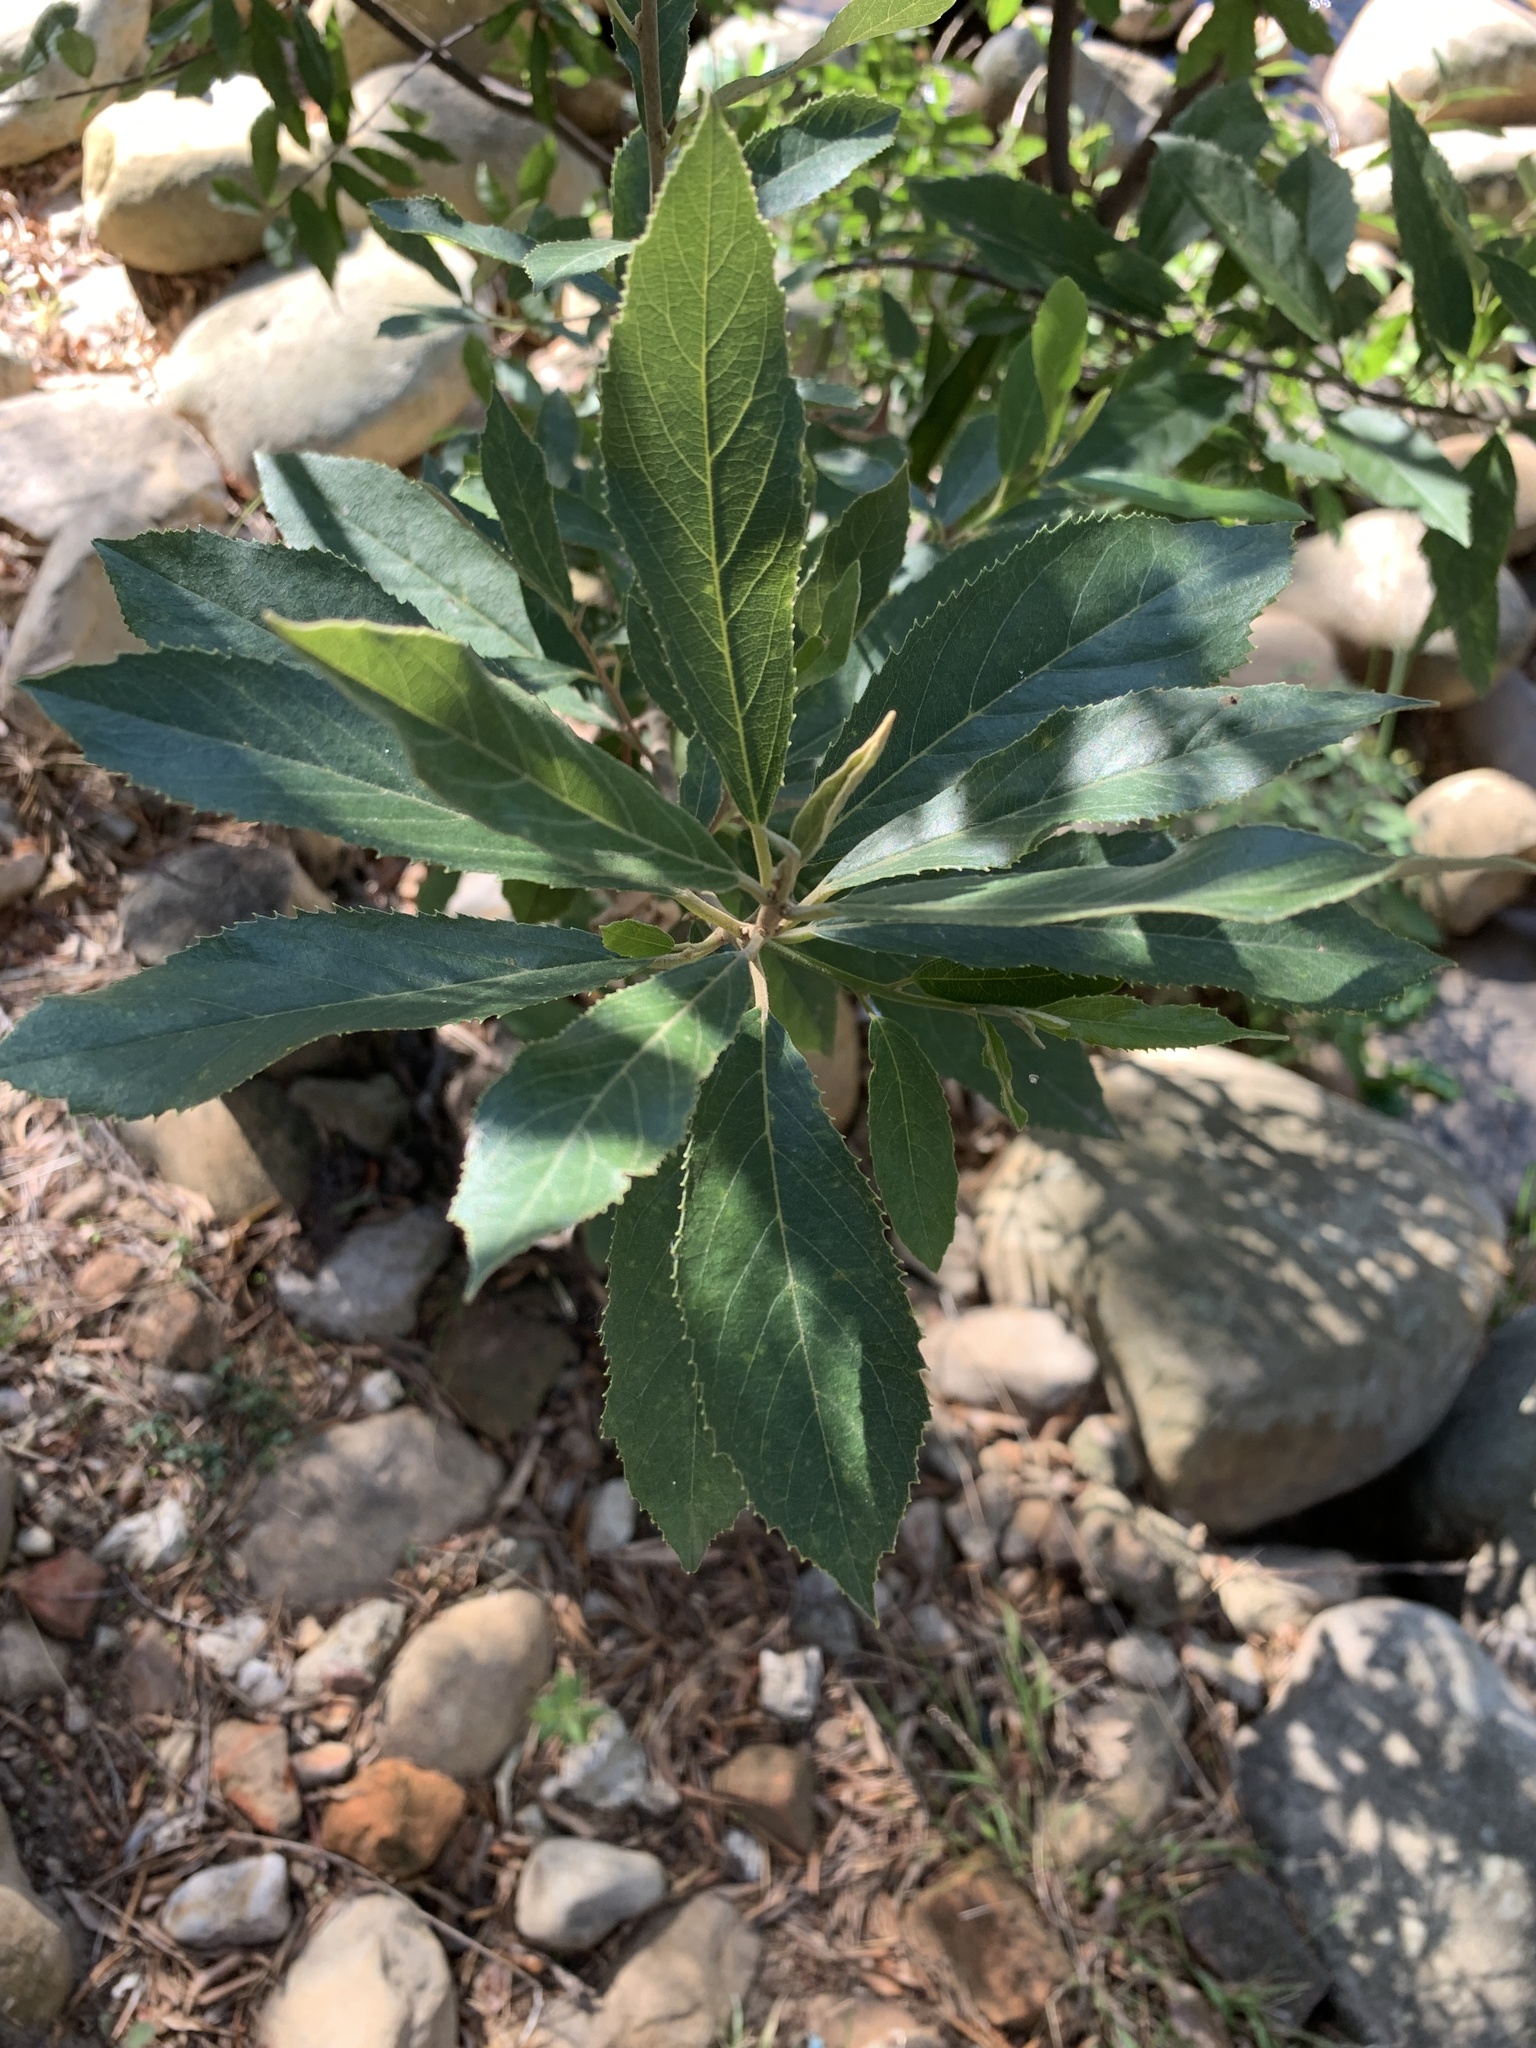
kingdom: Plantae
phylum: Tracheophyta
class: Magnoliopsida
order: Malpighiales
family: Achariaceae
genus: Kiggelaria
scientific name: Kiggelaria africana
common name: Wild peach
